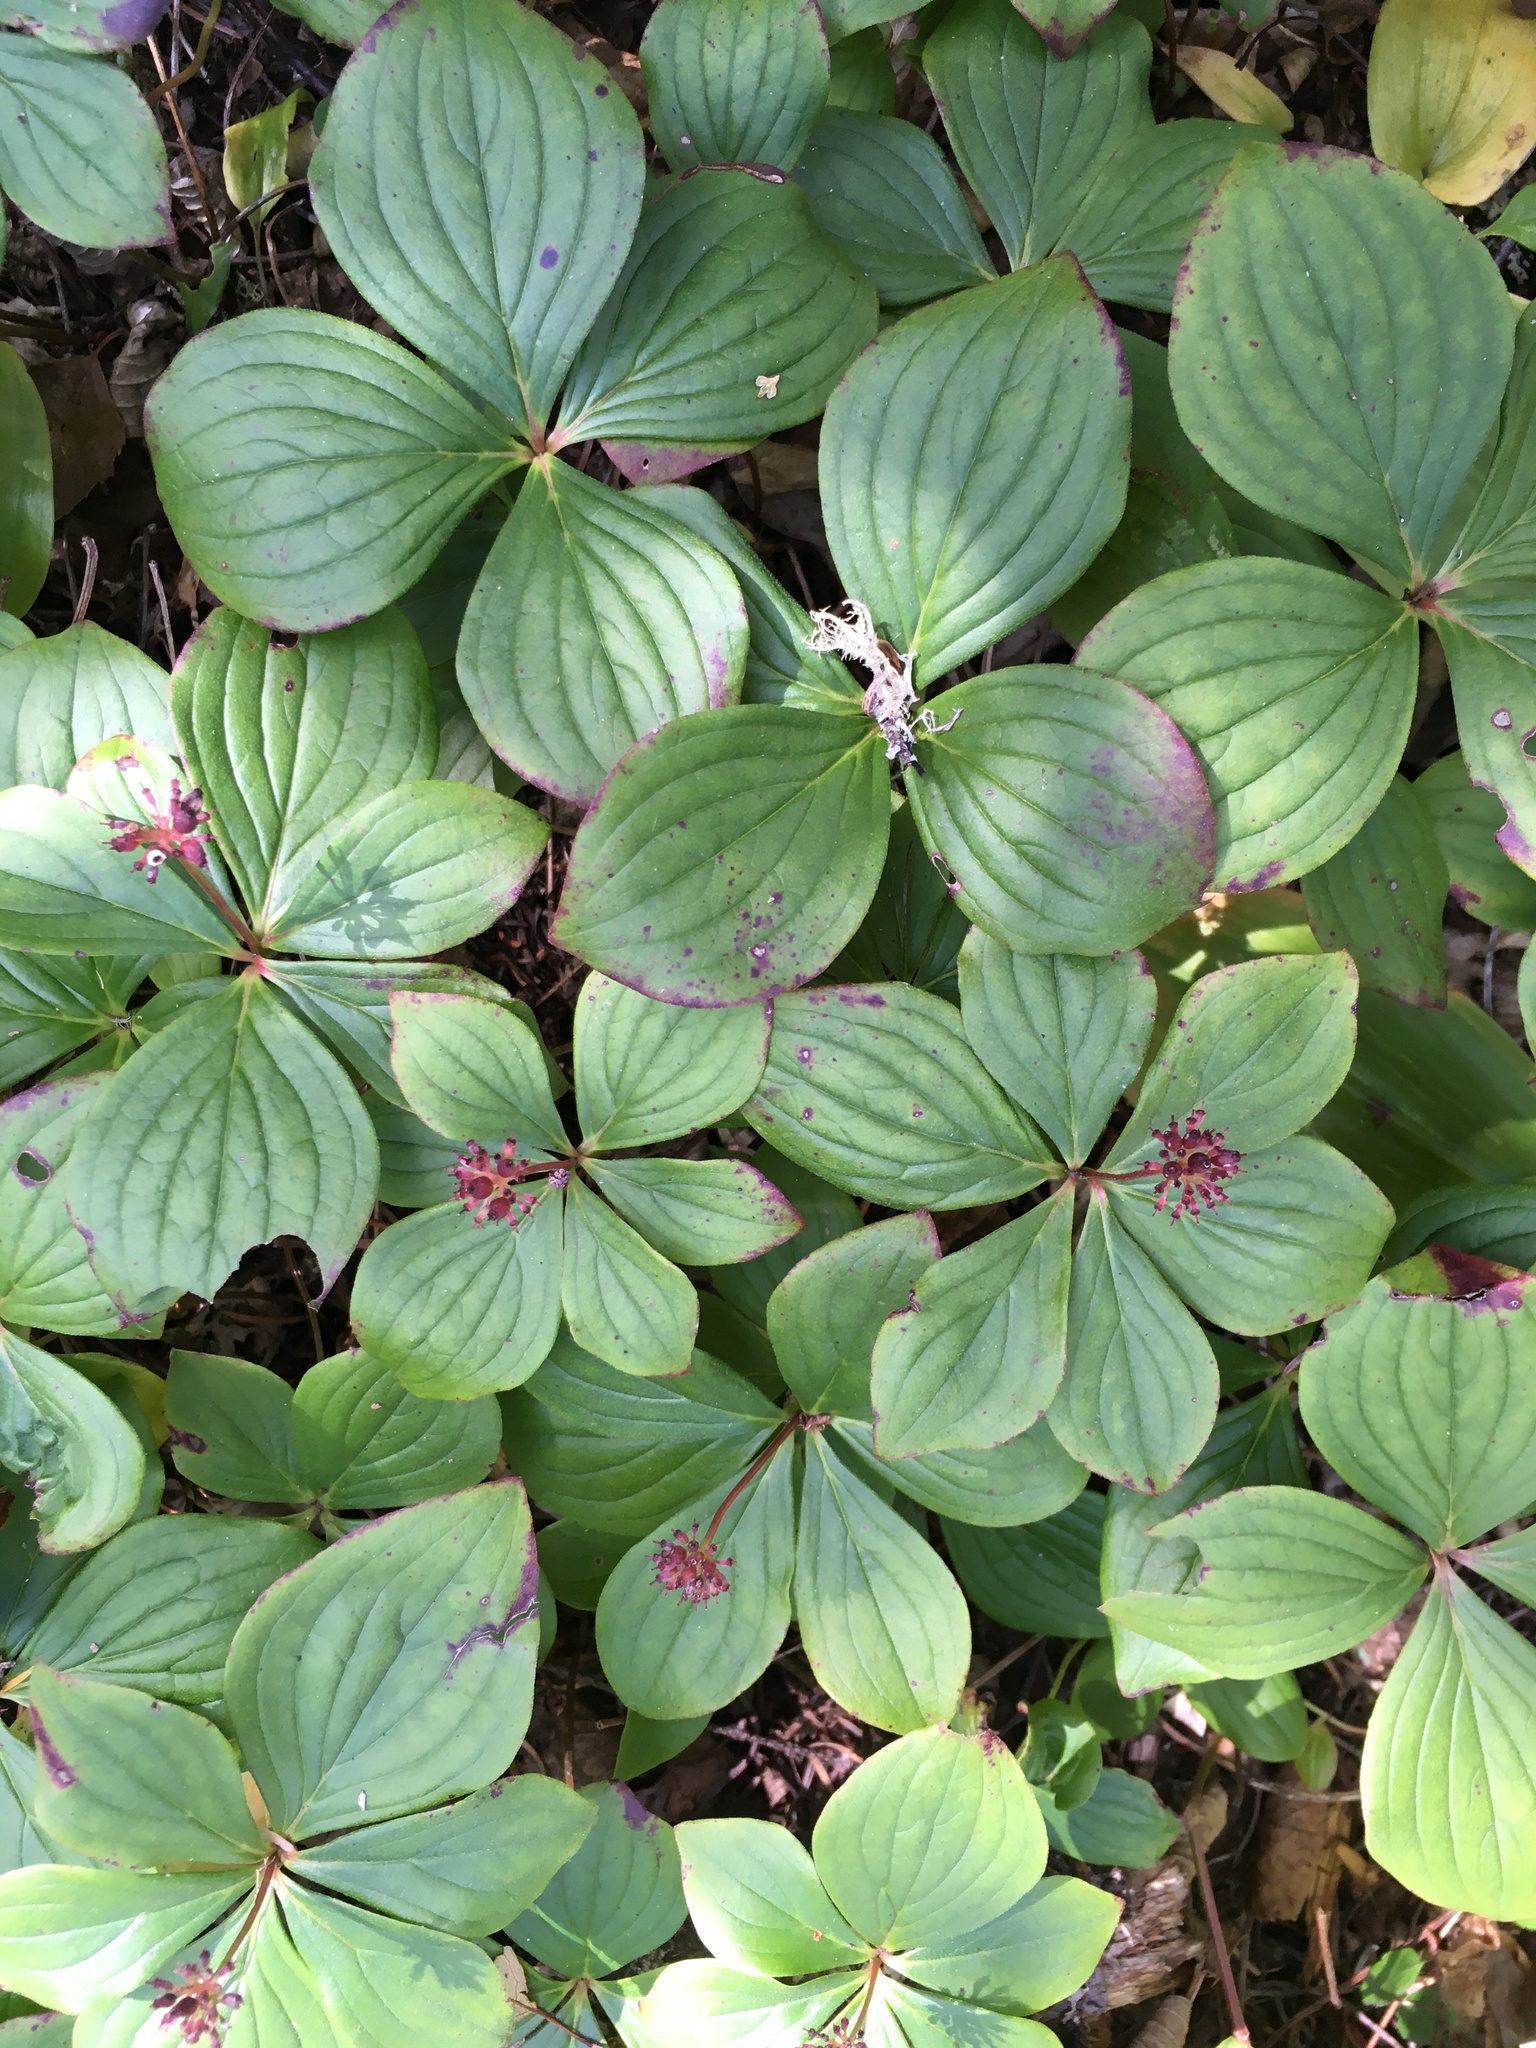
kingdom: Plantae
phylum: Tracheophyta
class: Magnoliopsida
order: Cornales
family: Cornaceae
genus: Cornus
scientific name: Cornus canadensis
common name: Creeping dogwood
